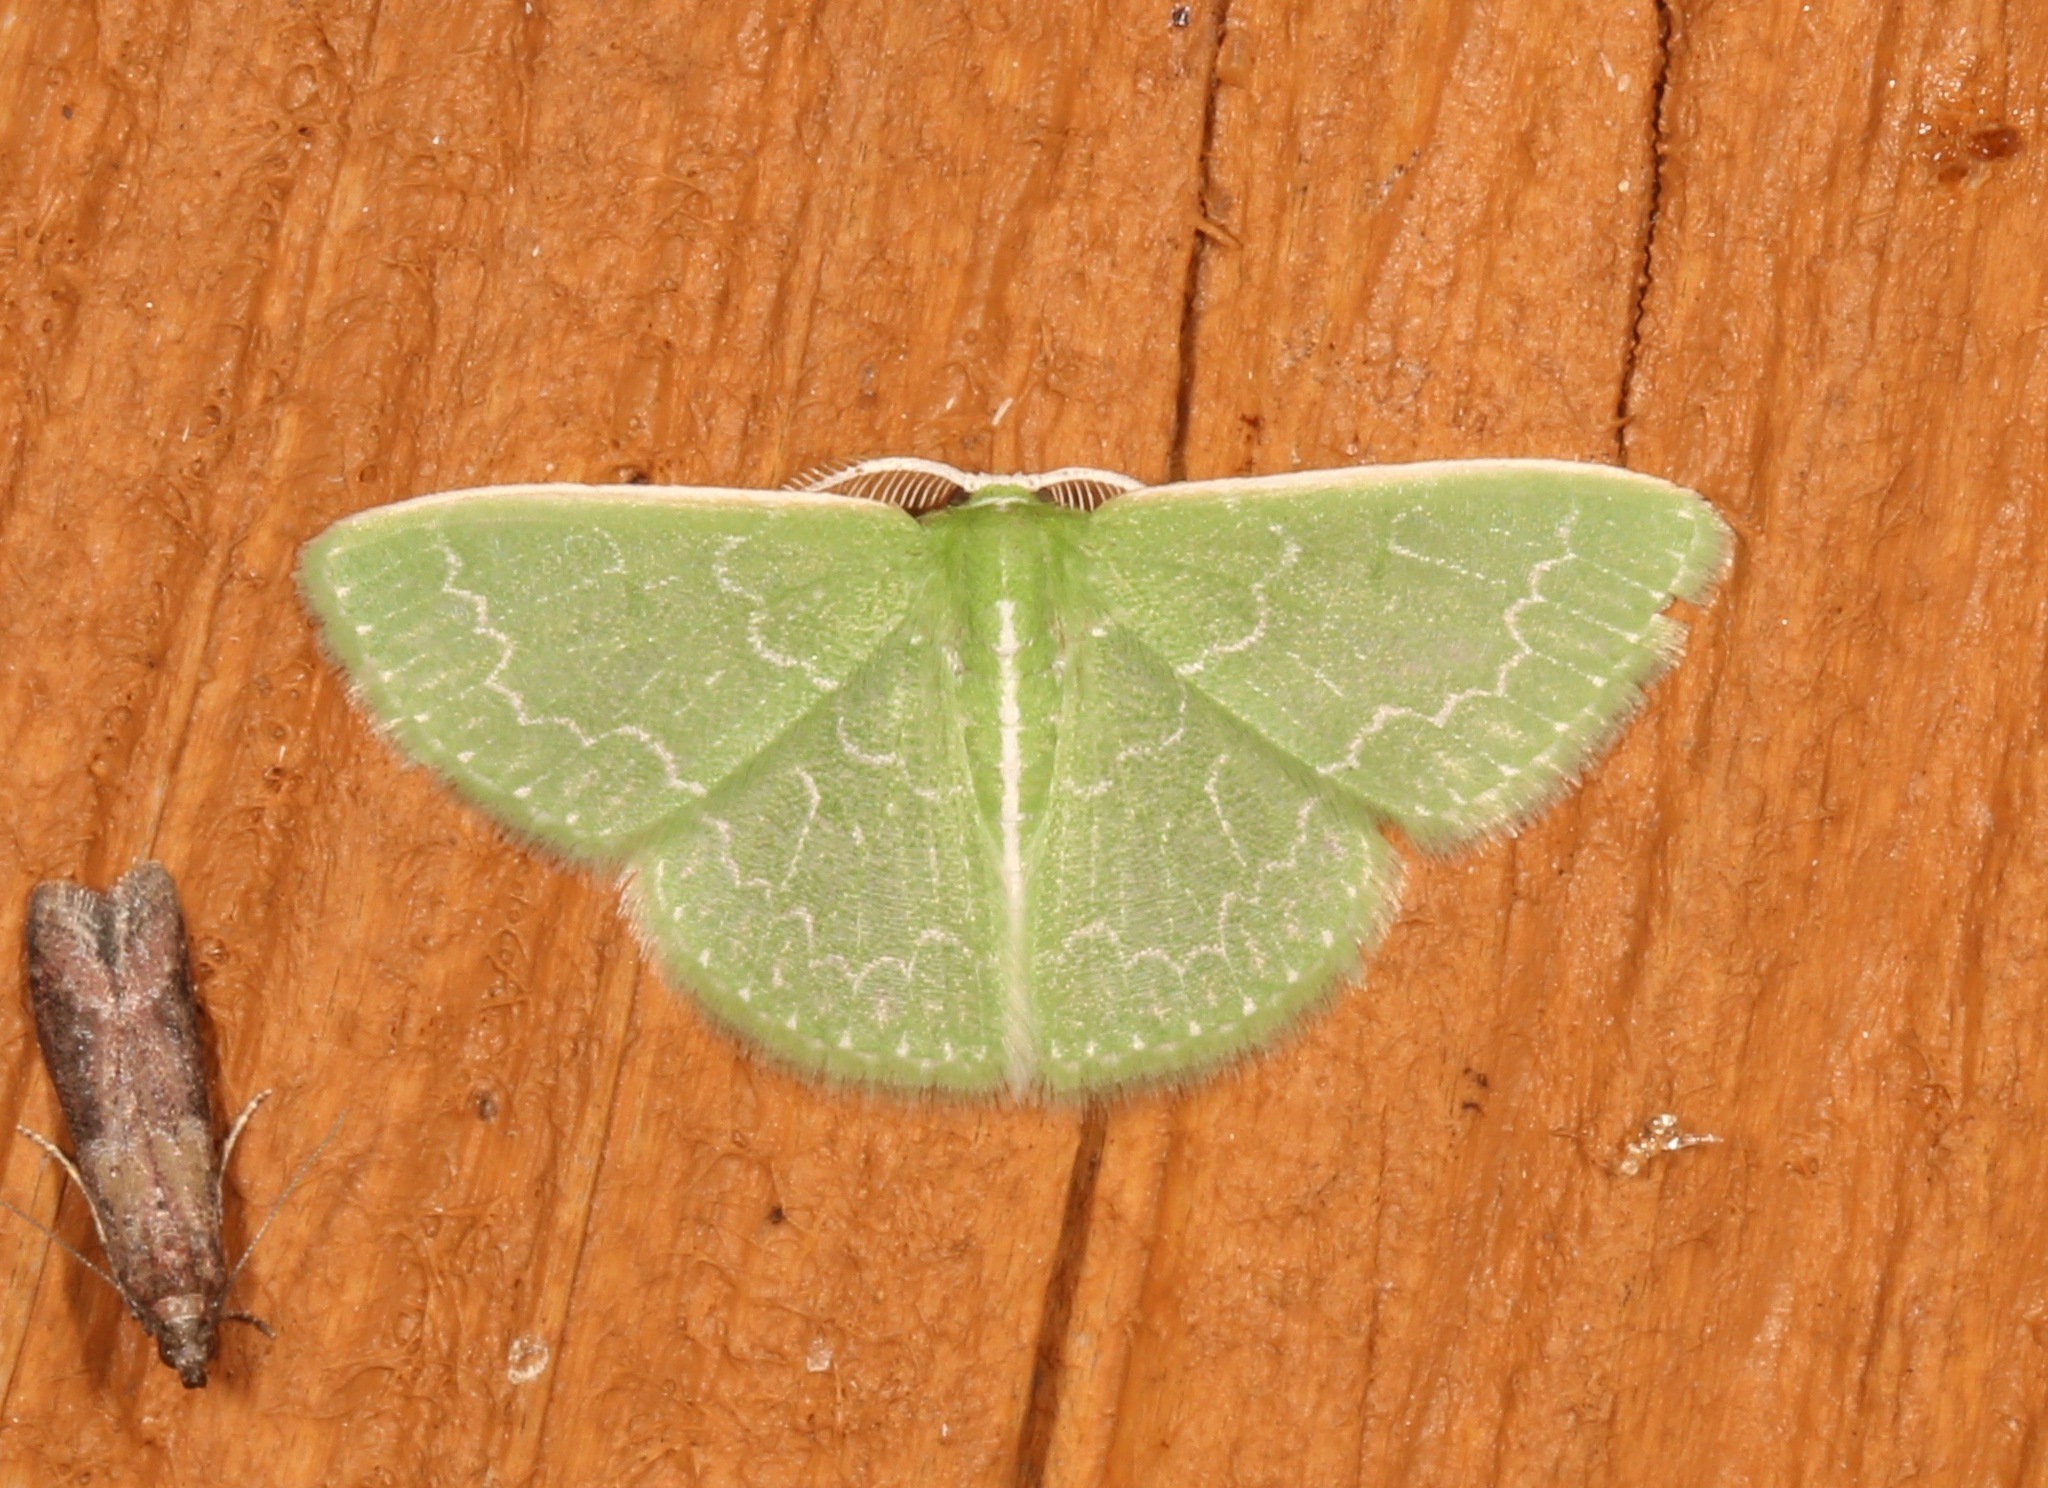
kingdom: Animalia
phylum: Arthropoda
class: Insecta
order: Lepidoptera
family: Geometridae
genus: Synchlora
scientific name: Synchlora frondaria
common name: Southern emerald
